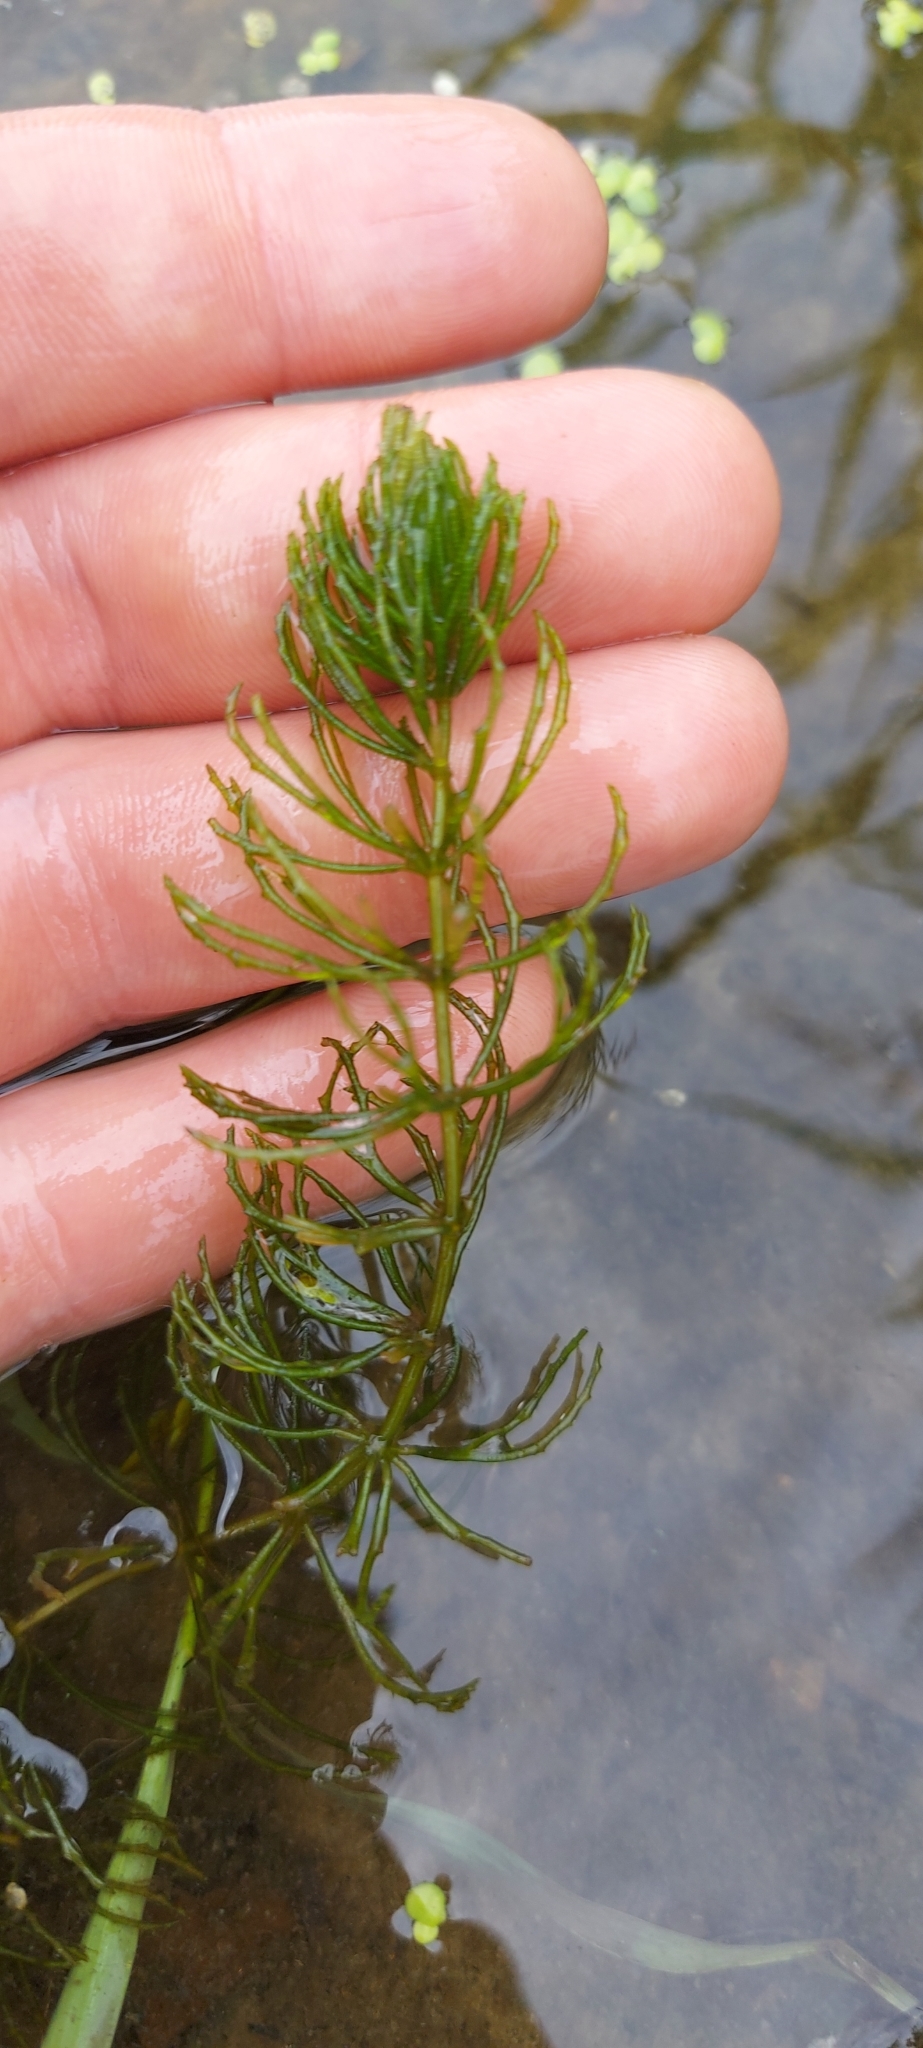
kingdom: Plantae
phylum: Tracheophyta
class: Magnoliopsida
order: Ceratophyllales
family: Ceratophyllaceae
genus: Ceratophyllum
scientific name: Ceratophyllum demersum
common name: Rigid hornwort
